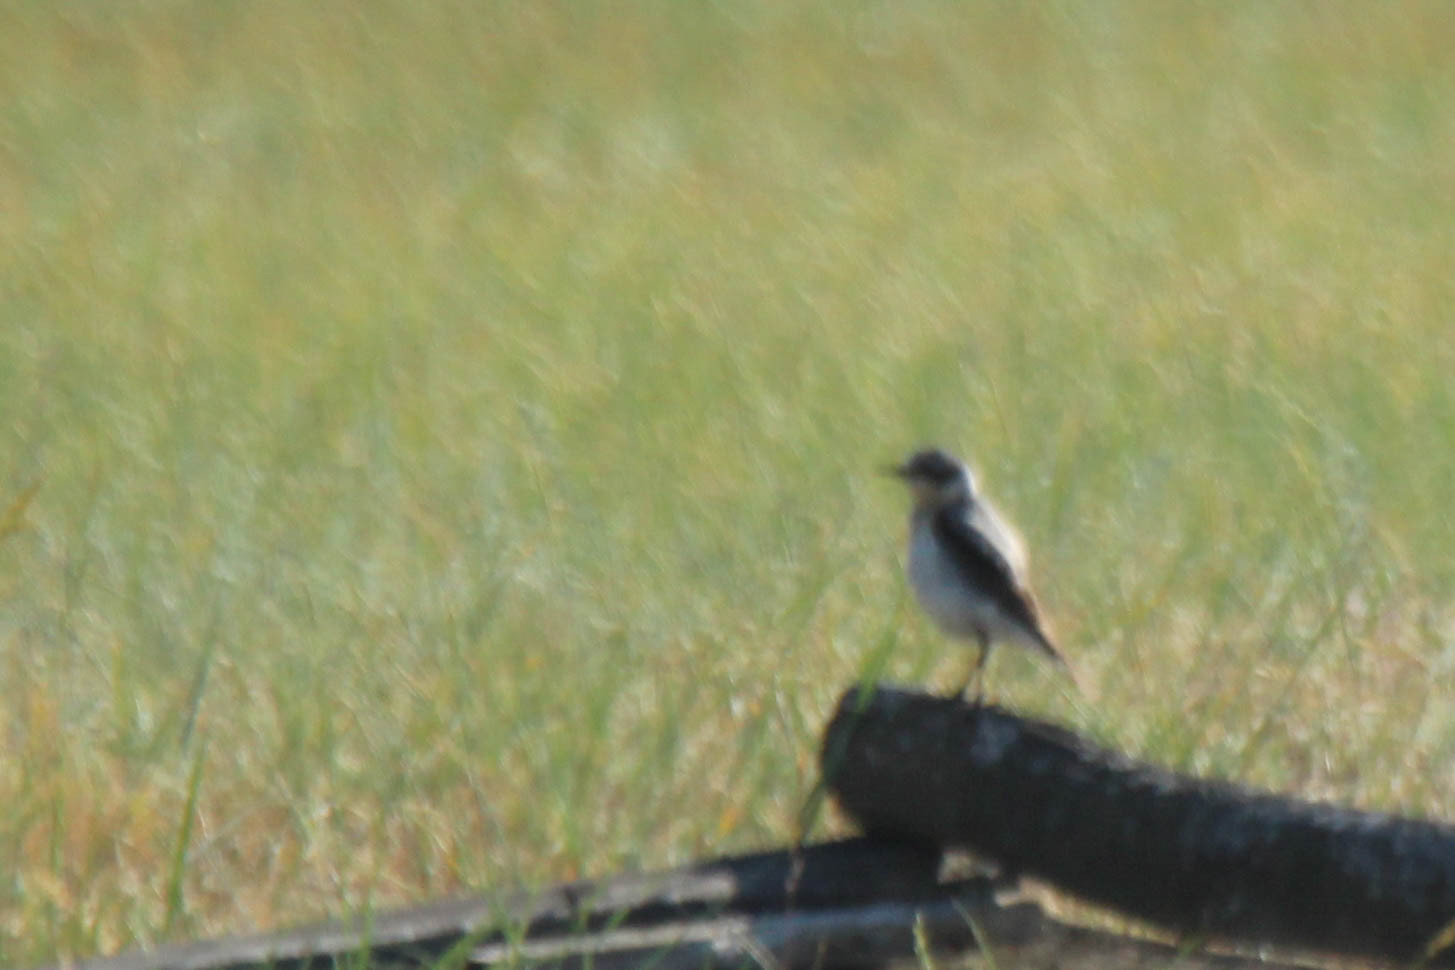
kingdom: Animalia
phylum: Chordata
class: Aves
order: Passeriformes
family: Muscicapidae
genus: Oenanthe
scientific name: Oenanthe oenanthe
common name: Northern wheatear
